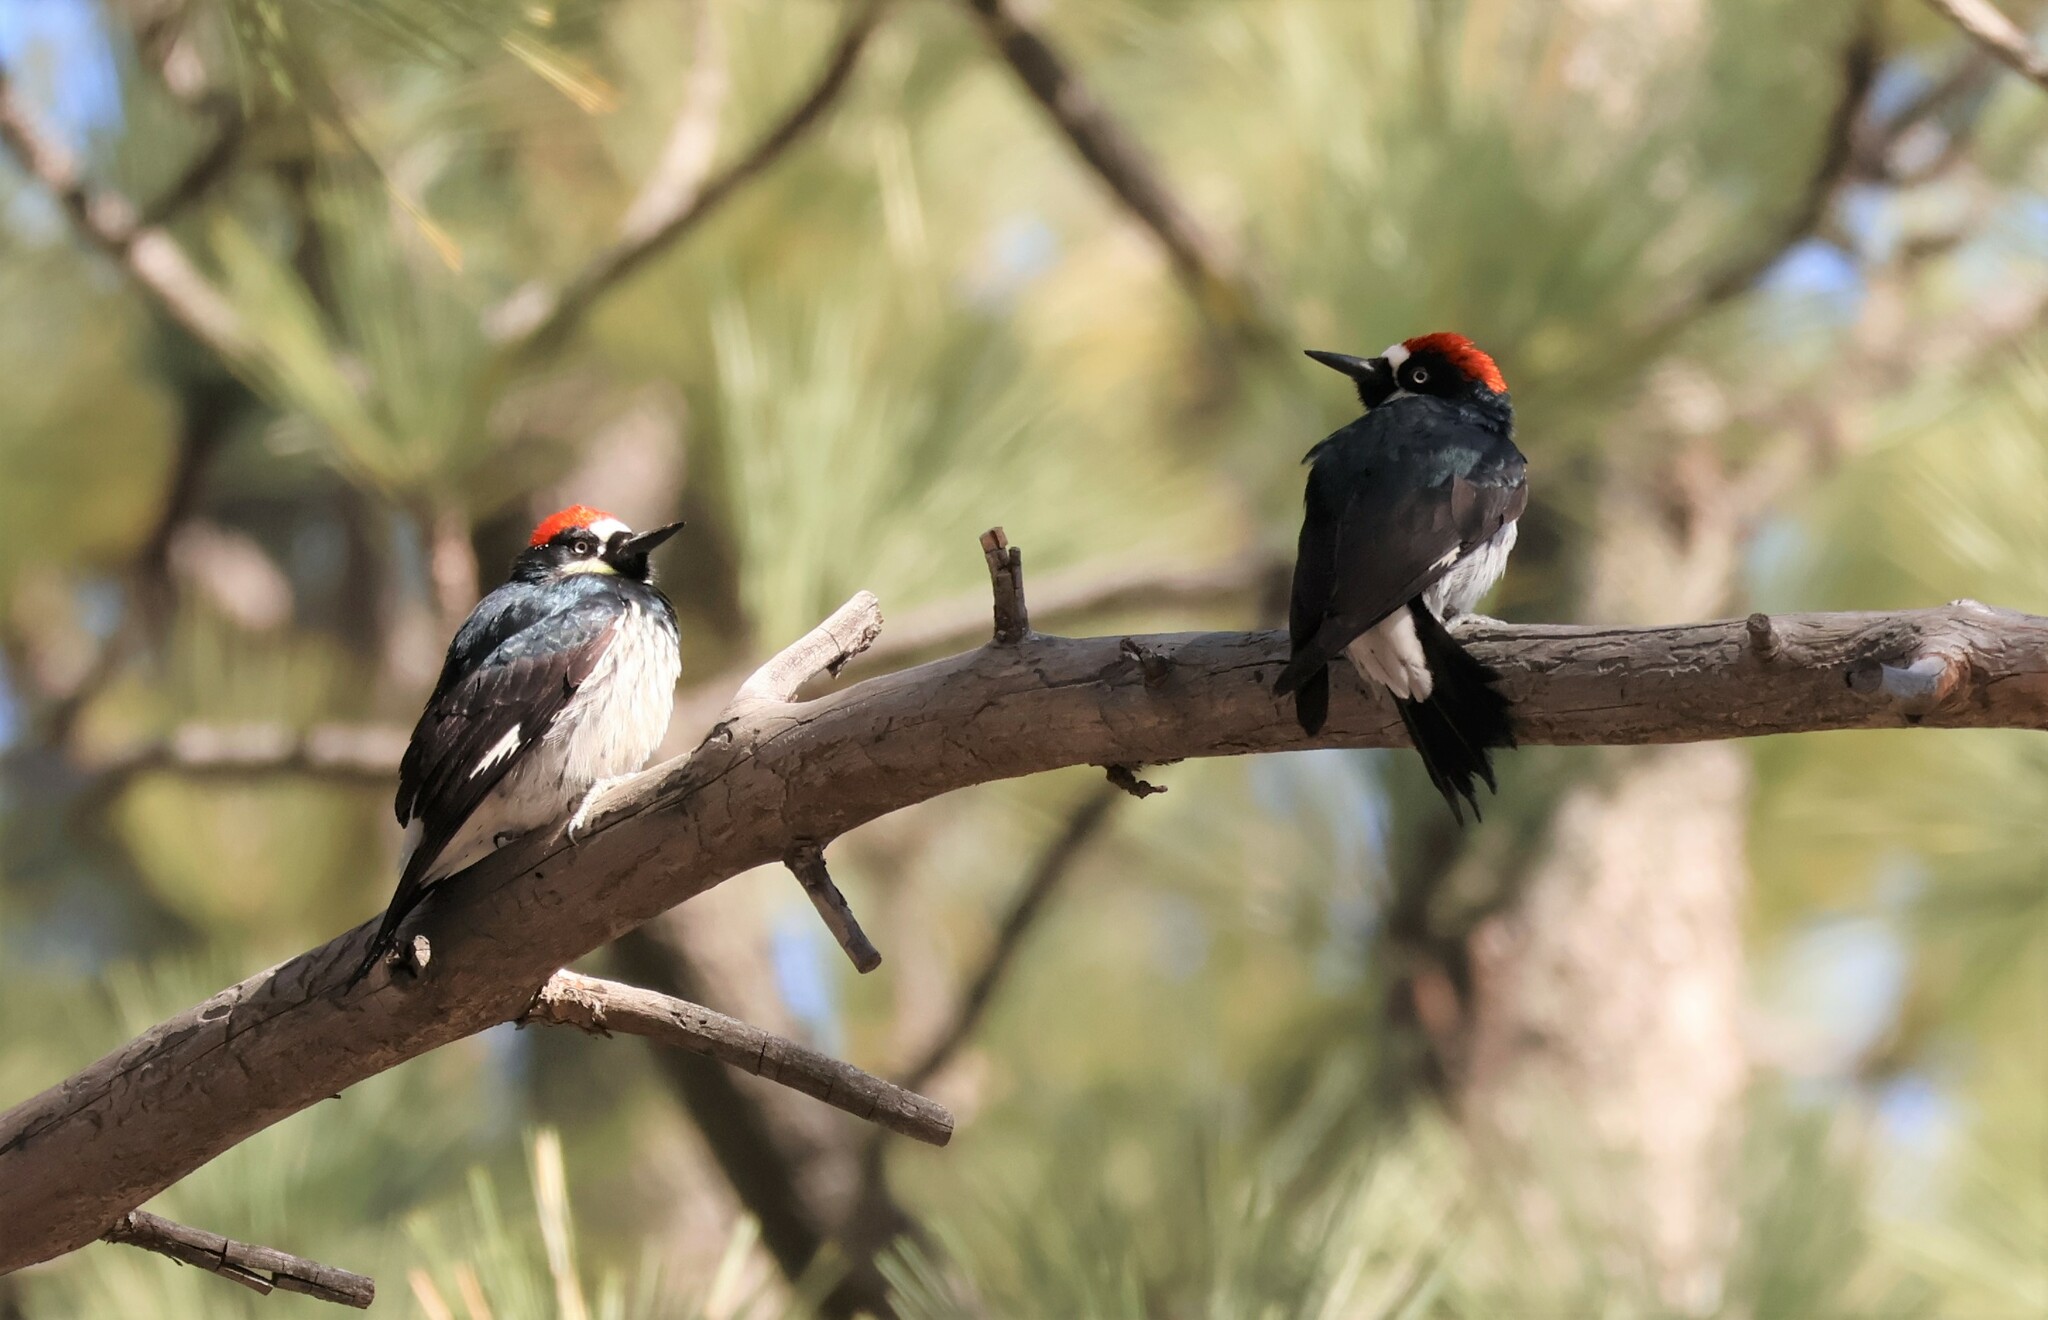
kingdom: Animalia
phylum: Chordata
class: Aves
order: Piciformes
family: Picidae
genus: Melanerpes
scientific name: Melanerpes formicivorus
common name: Acorn woodpecker
